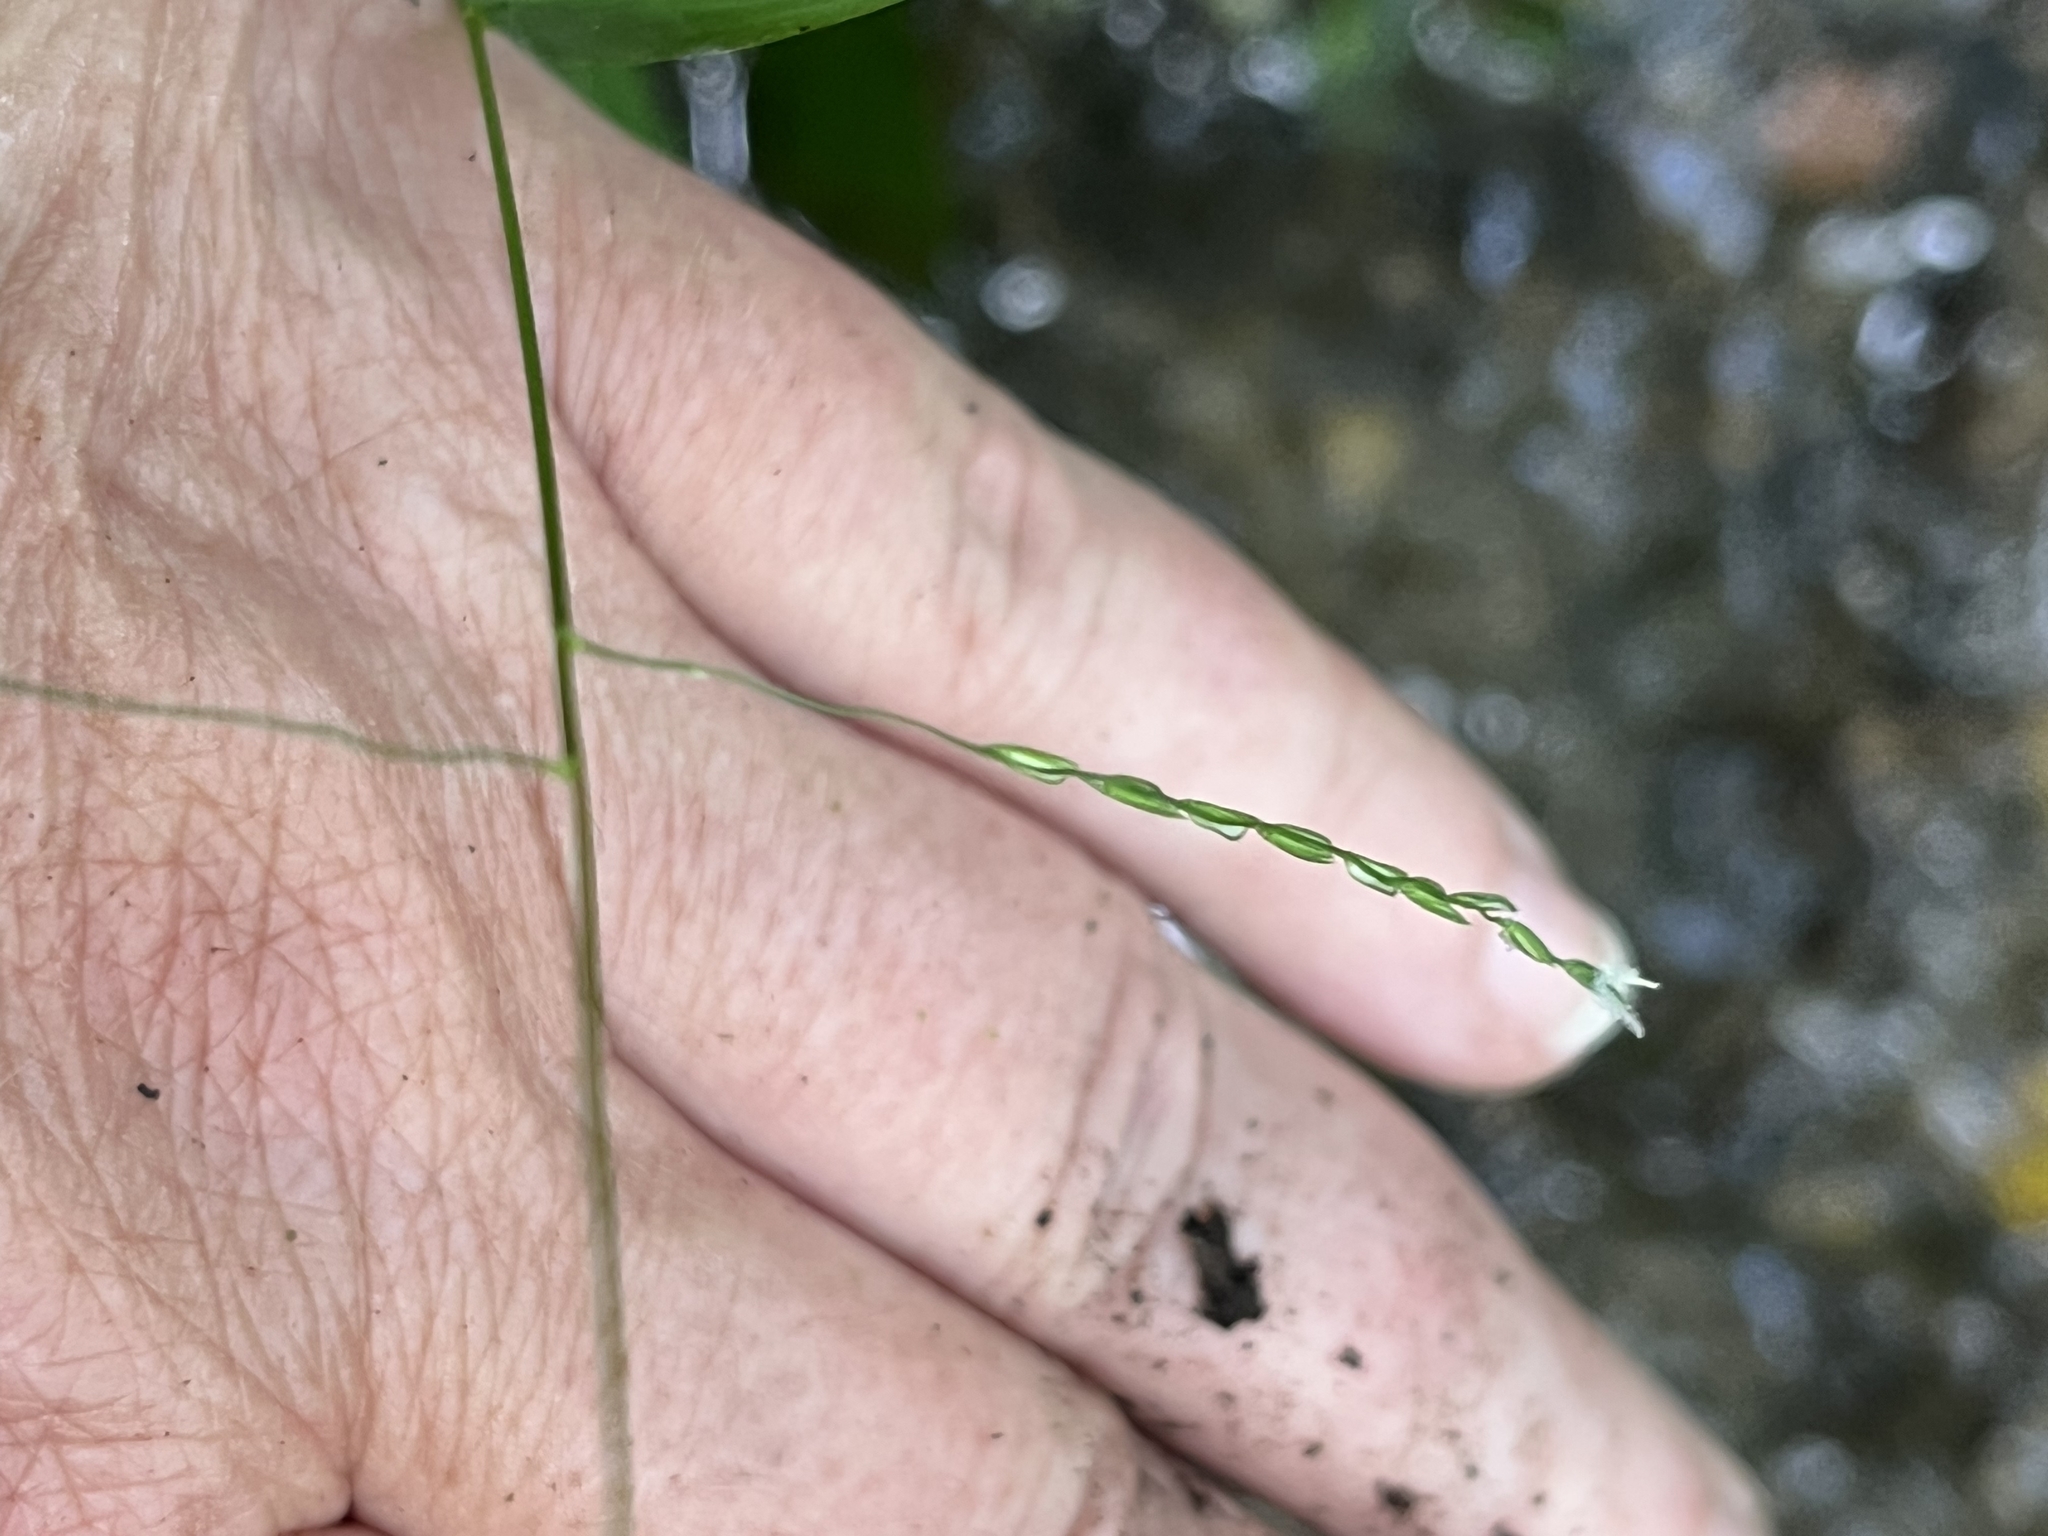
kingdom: Plantae
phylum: Tracheophyta
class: Liliopsida
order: Poales
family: Poaceae
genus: Leersia
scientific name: Leersia virginica
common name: White cutgrass
